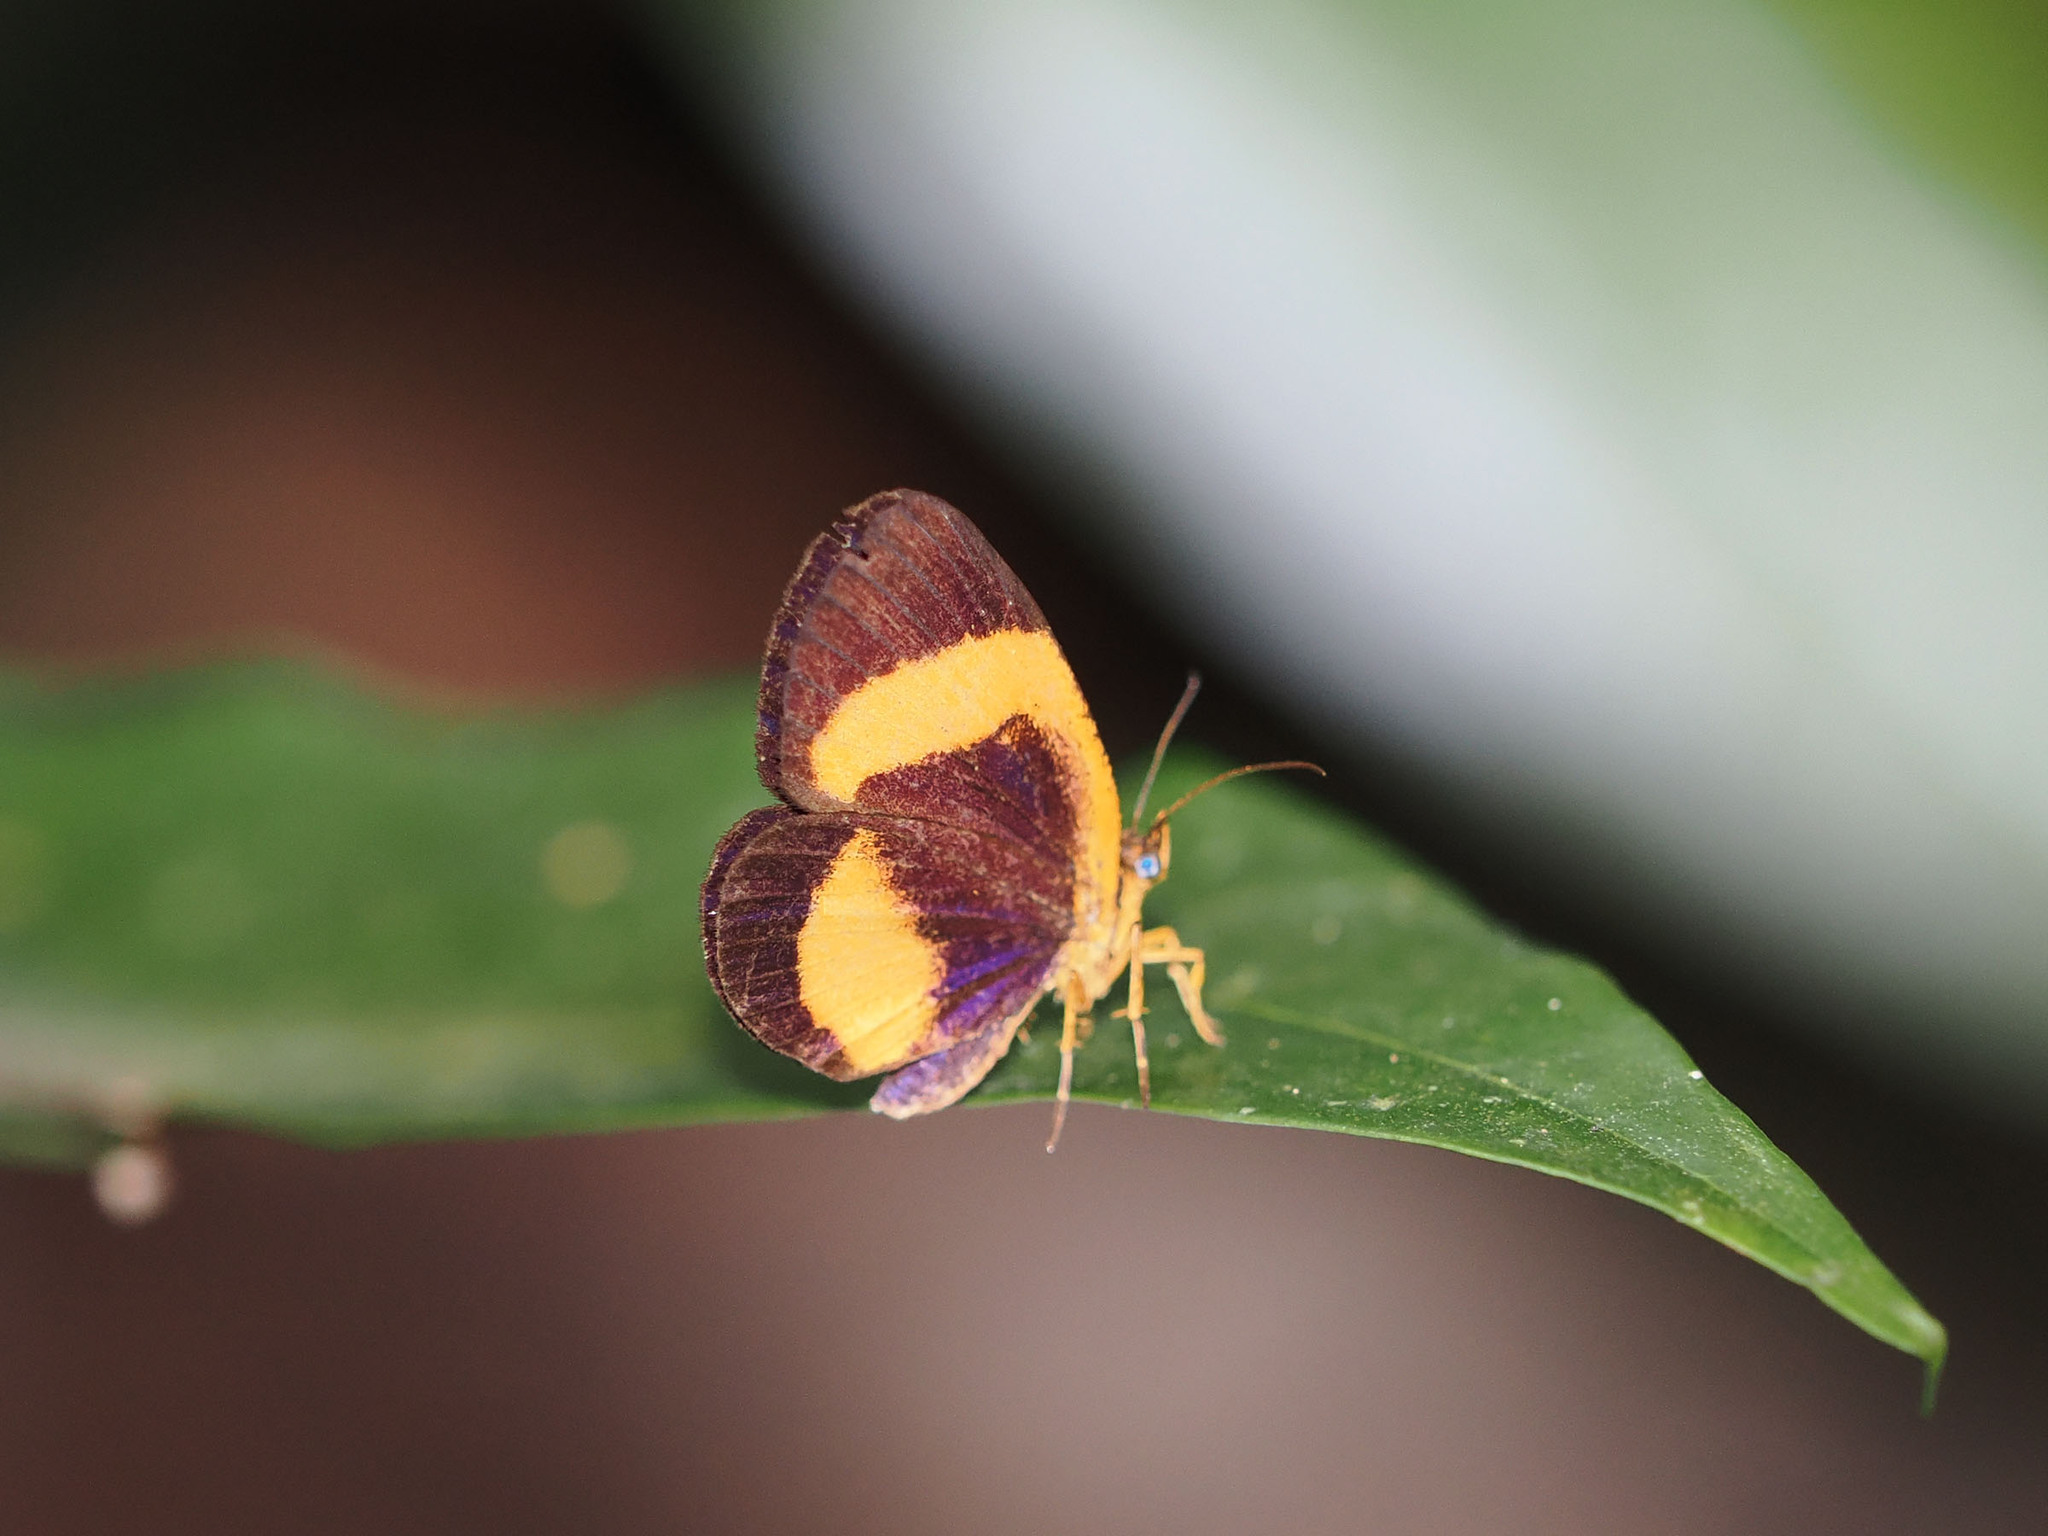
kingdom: Animalia
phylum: Arthropoda
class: Insecta
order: Lepidoptera
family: Callidulidae
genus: Callidula
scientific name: Callidula evander
